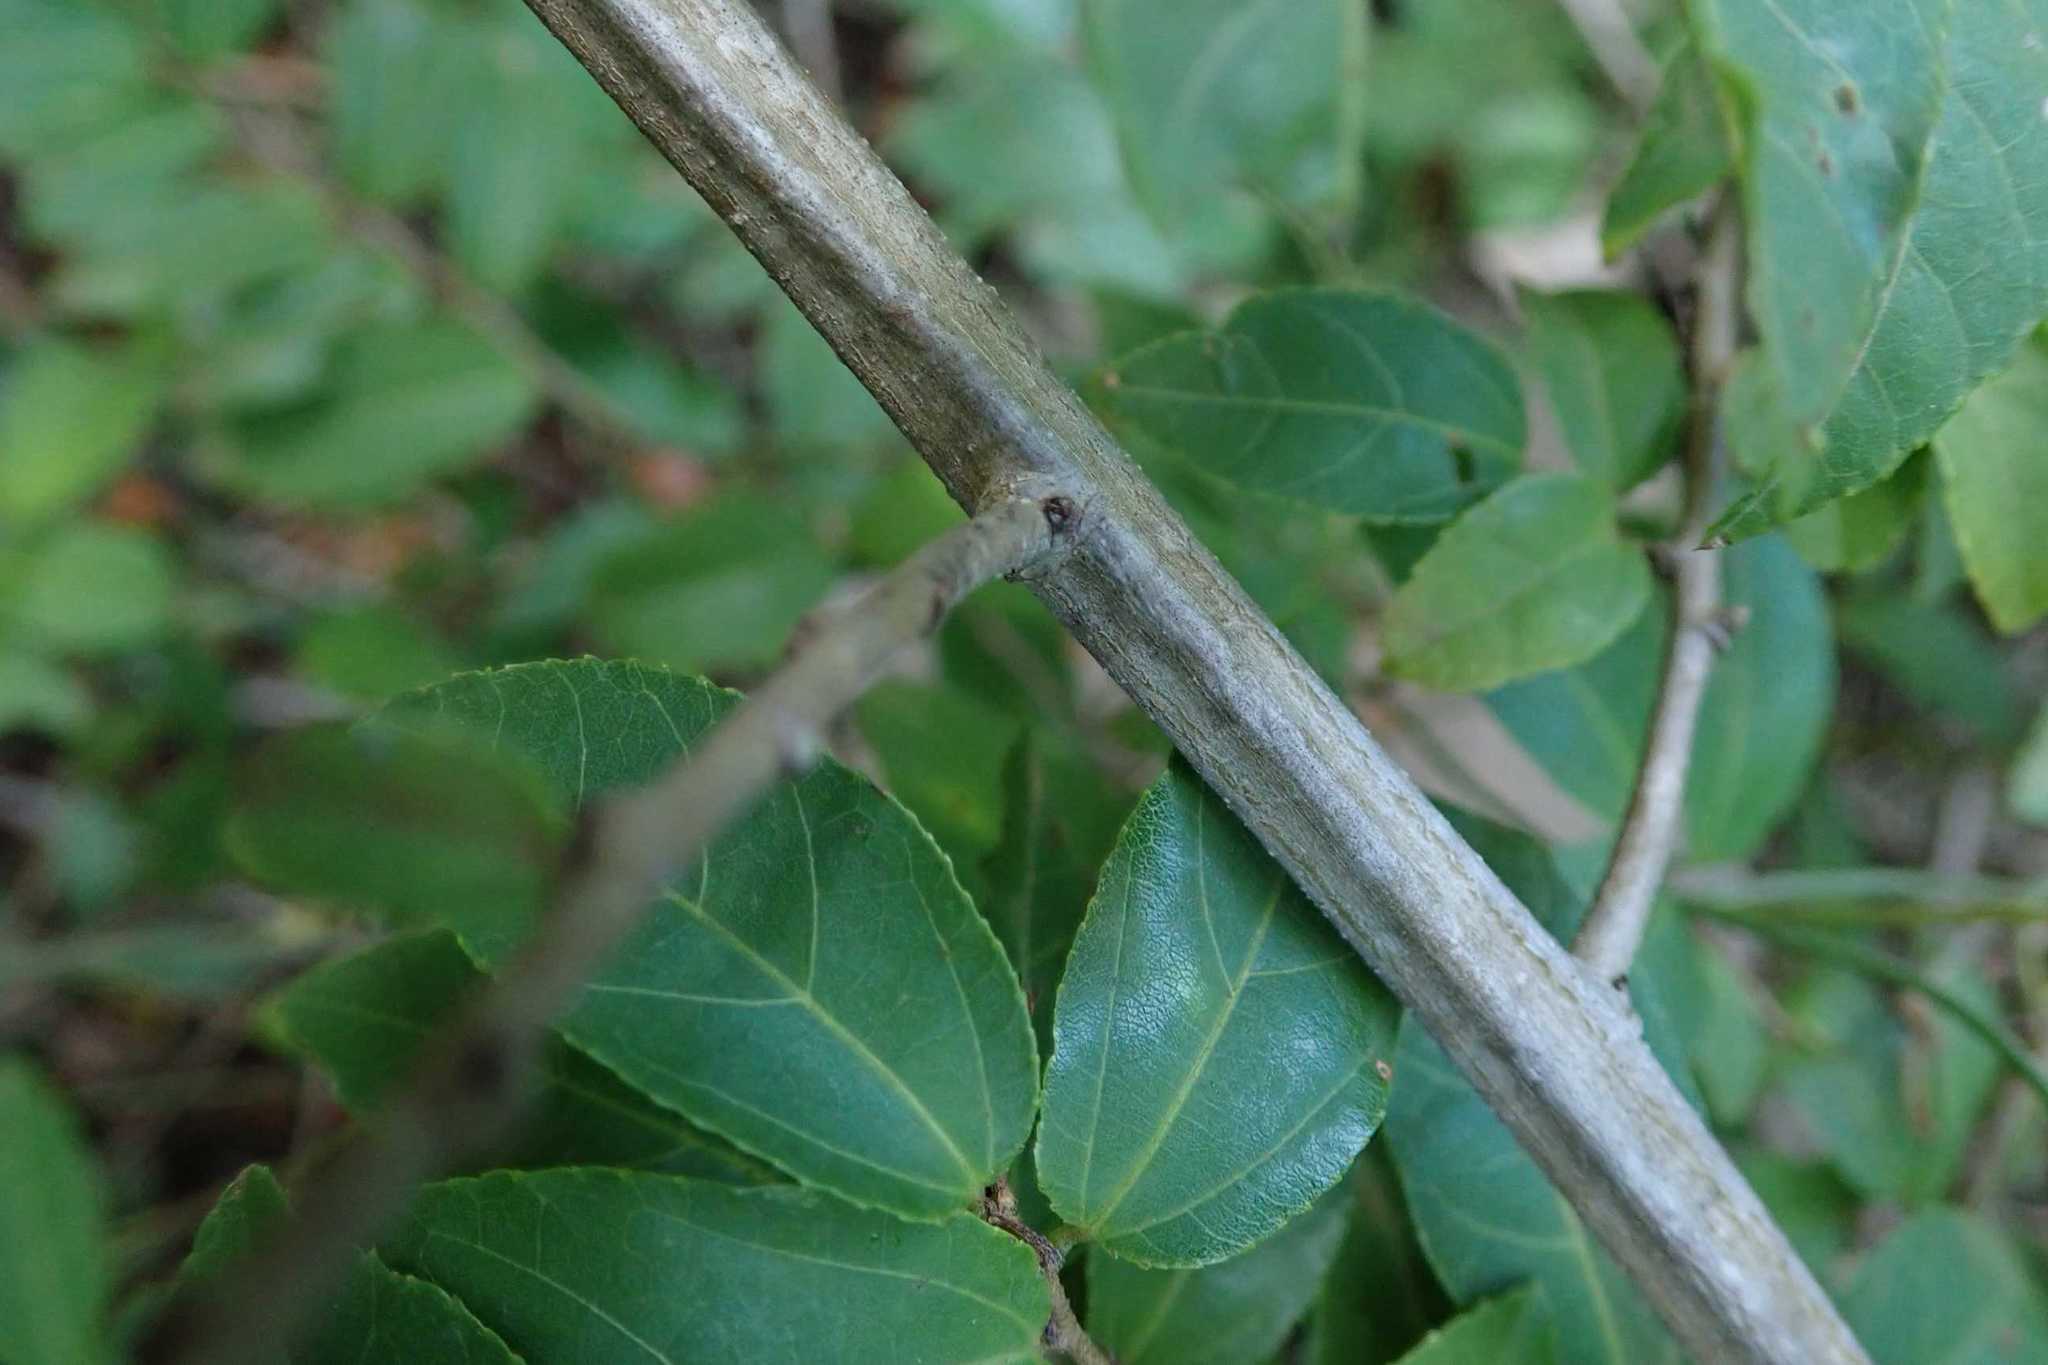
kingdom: Plantae
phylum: Tracheophyta
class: Magnoliopsida
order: Malvales
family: Malvaceae
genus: Grewia
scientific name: Grewia caffra
